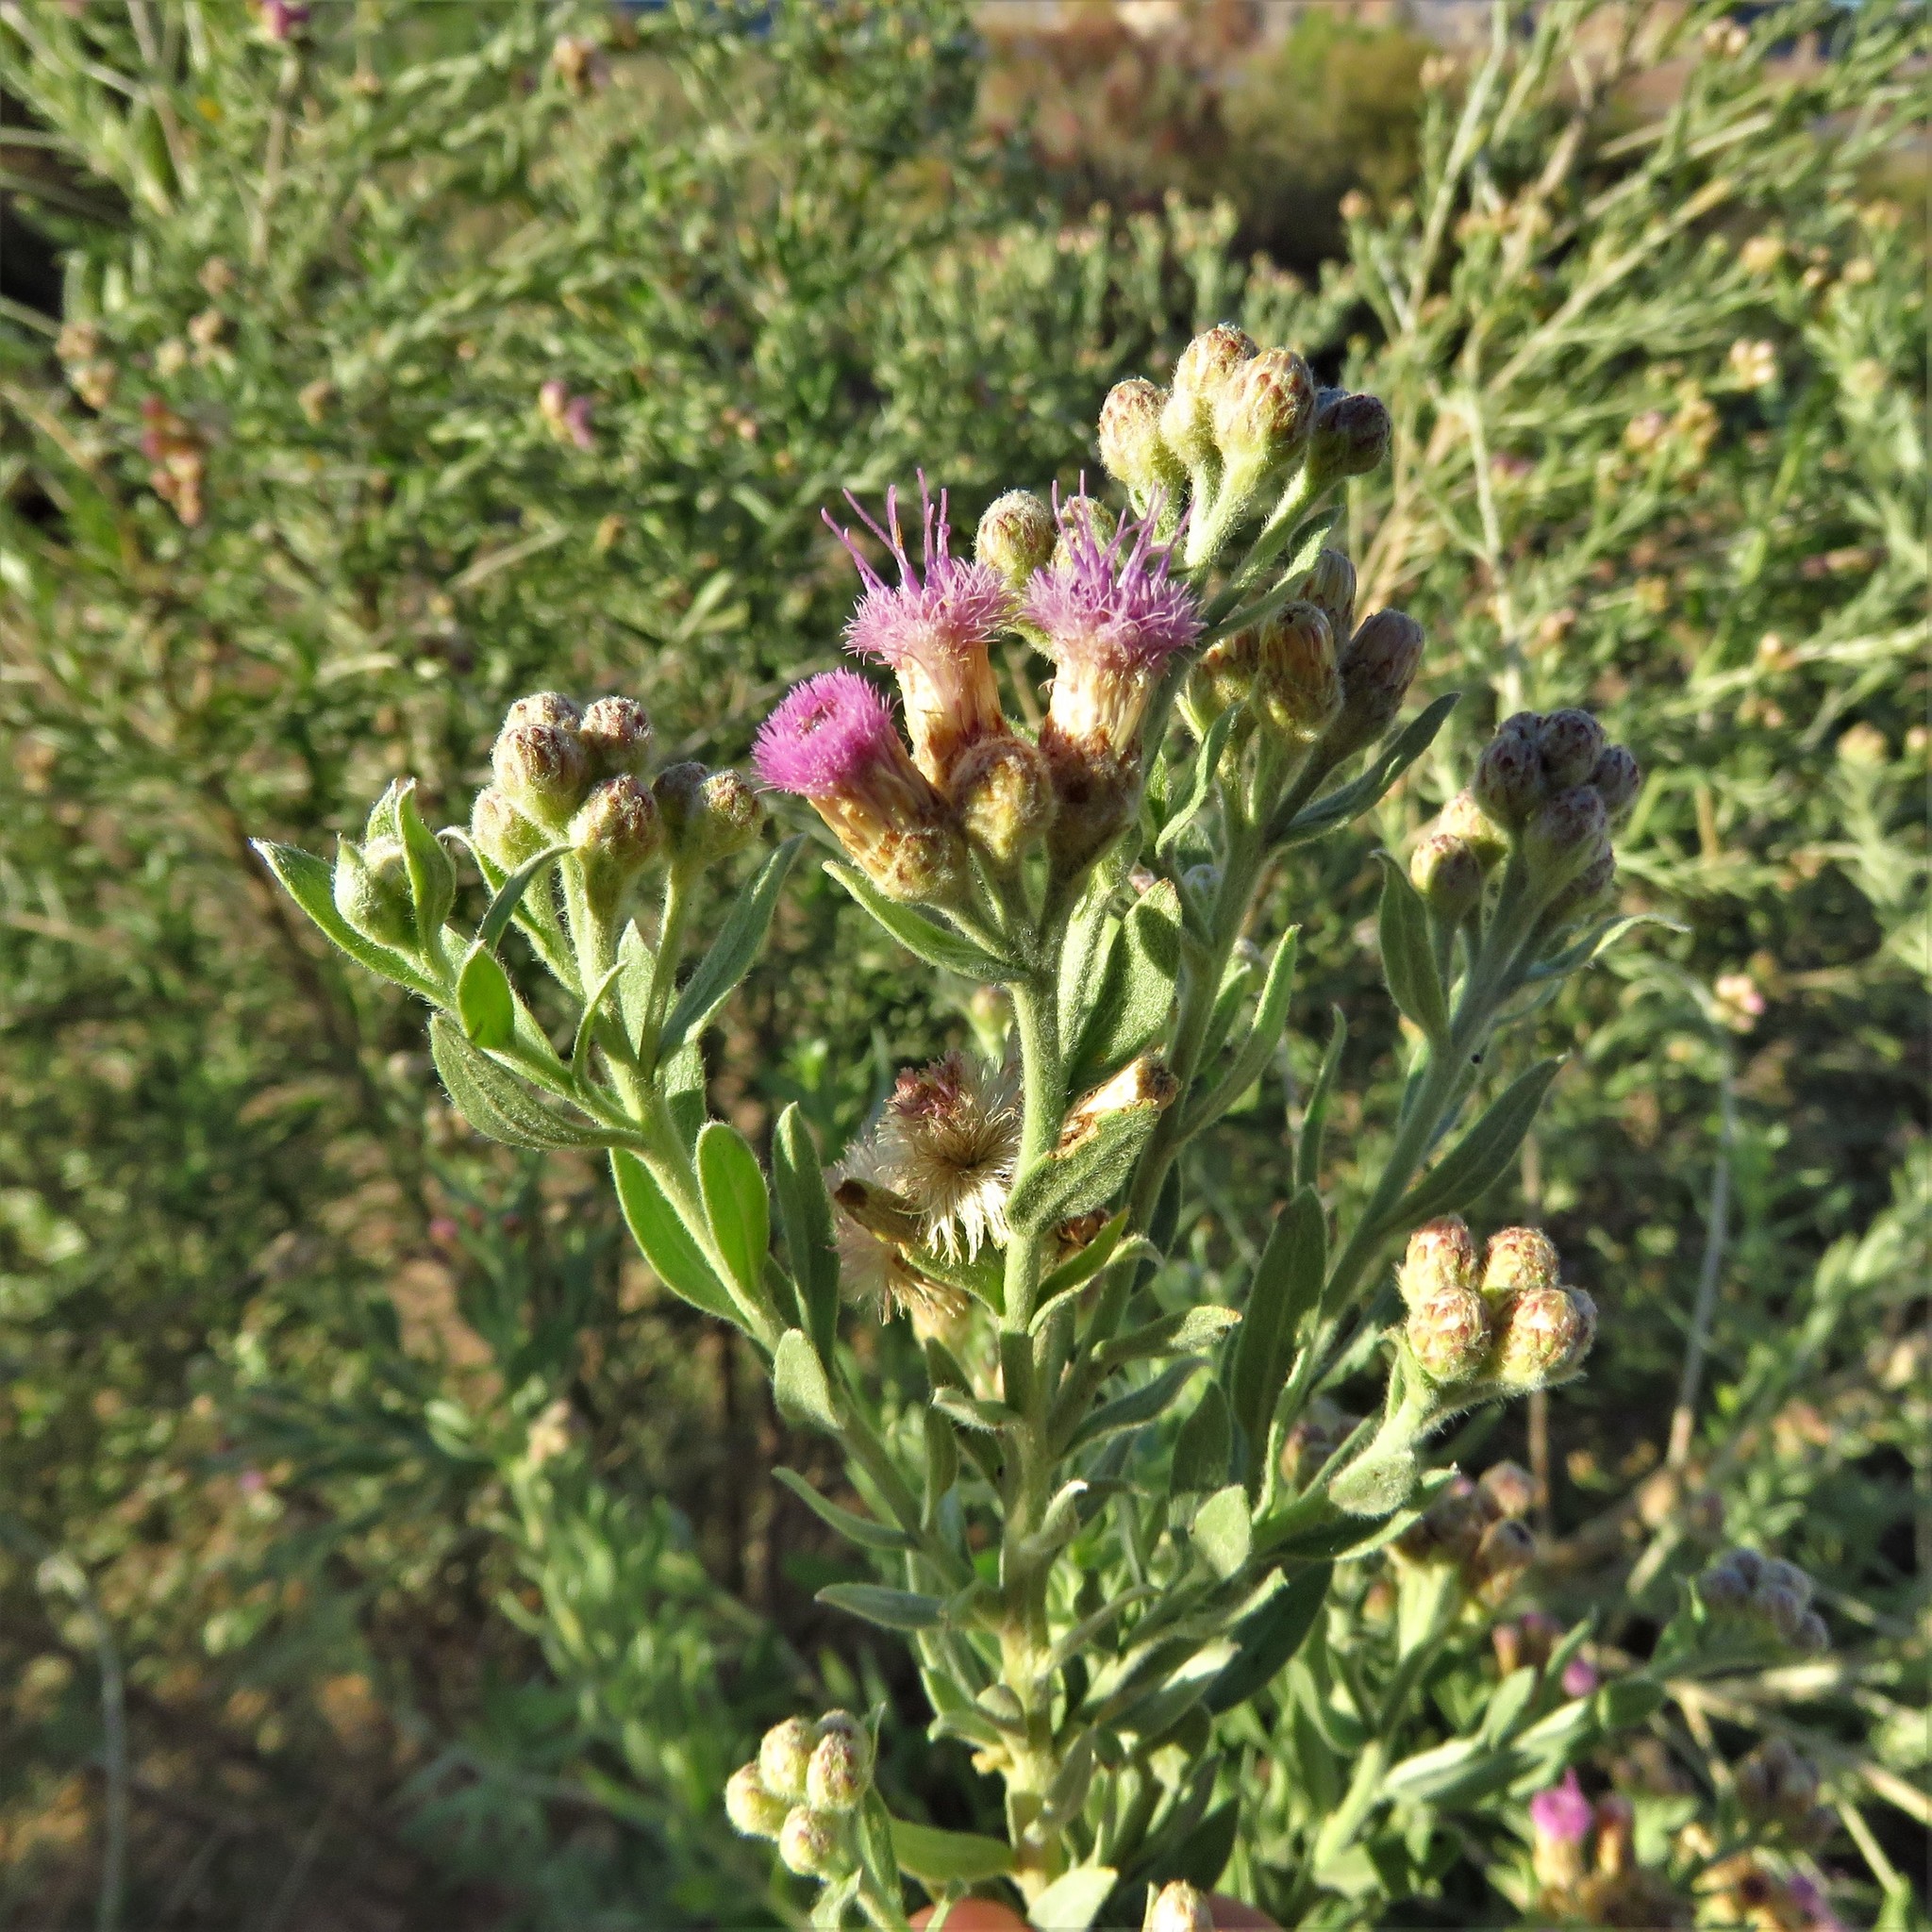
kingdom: Plantae
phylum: Tracheophyta
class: Magnoliopsida
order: Asterales
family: Asteraceae
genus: Pluchea
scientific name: Pluchea sericea
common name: Arrow-weed
